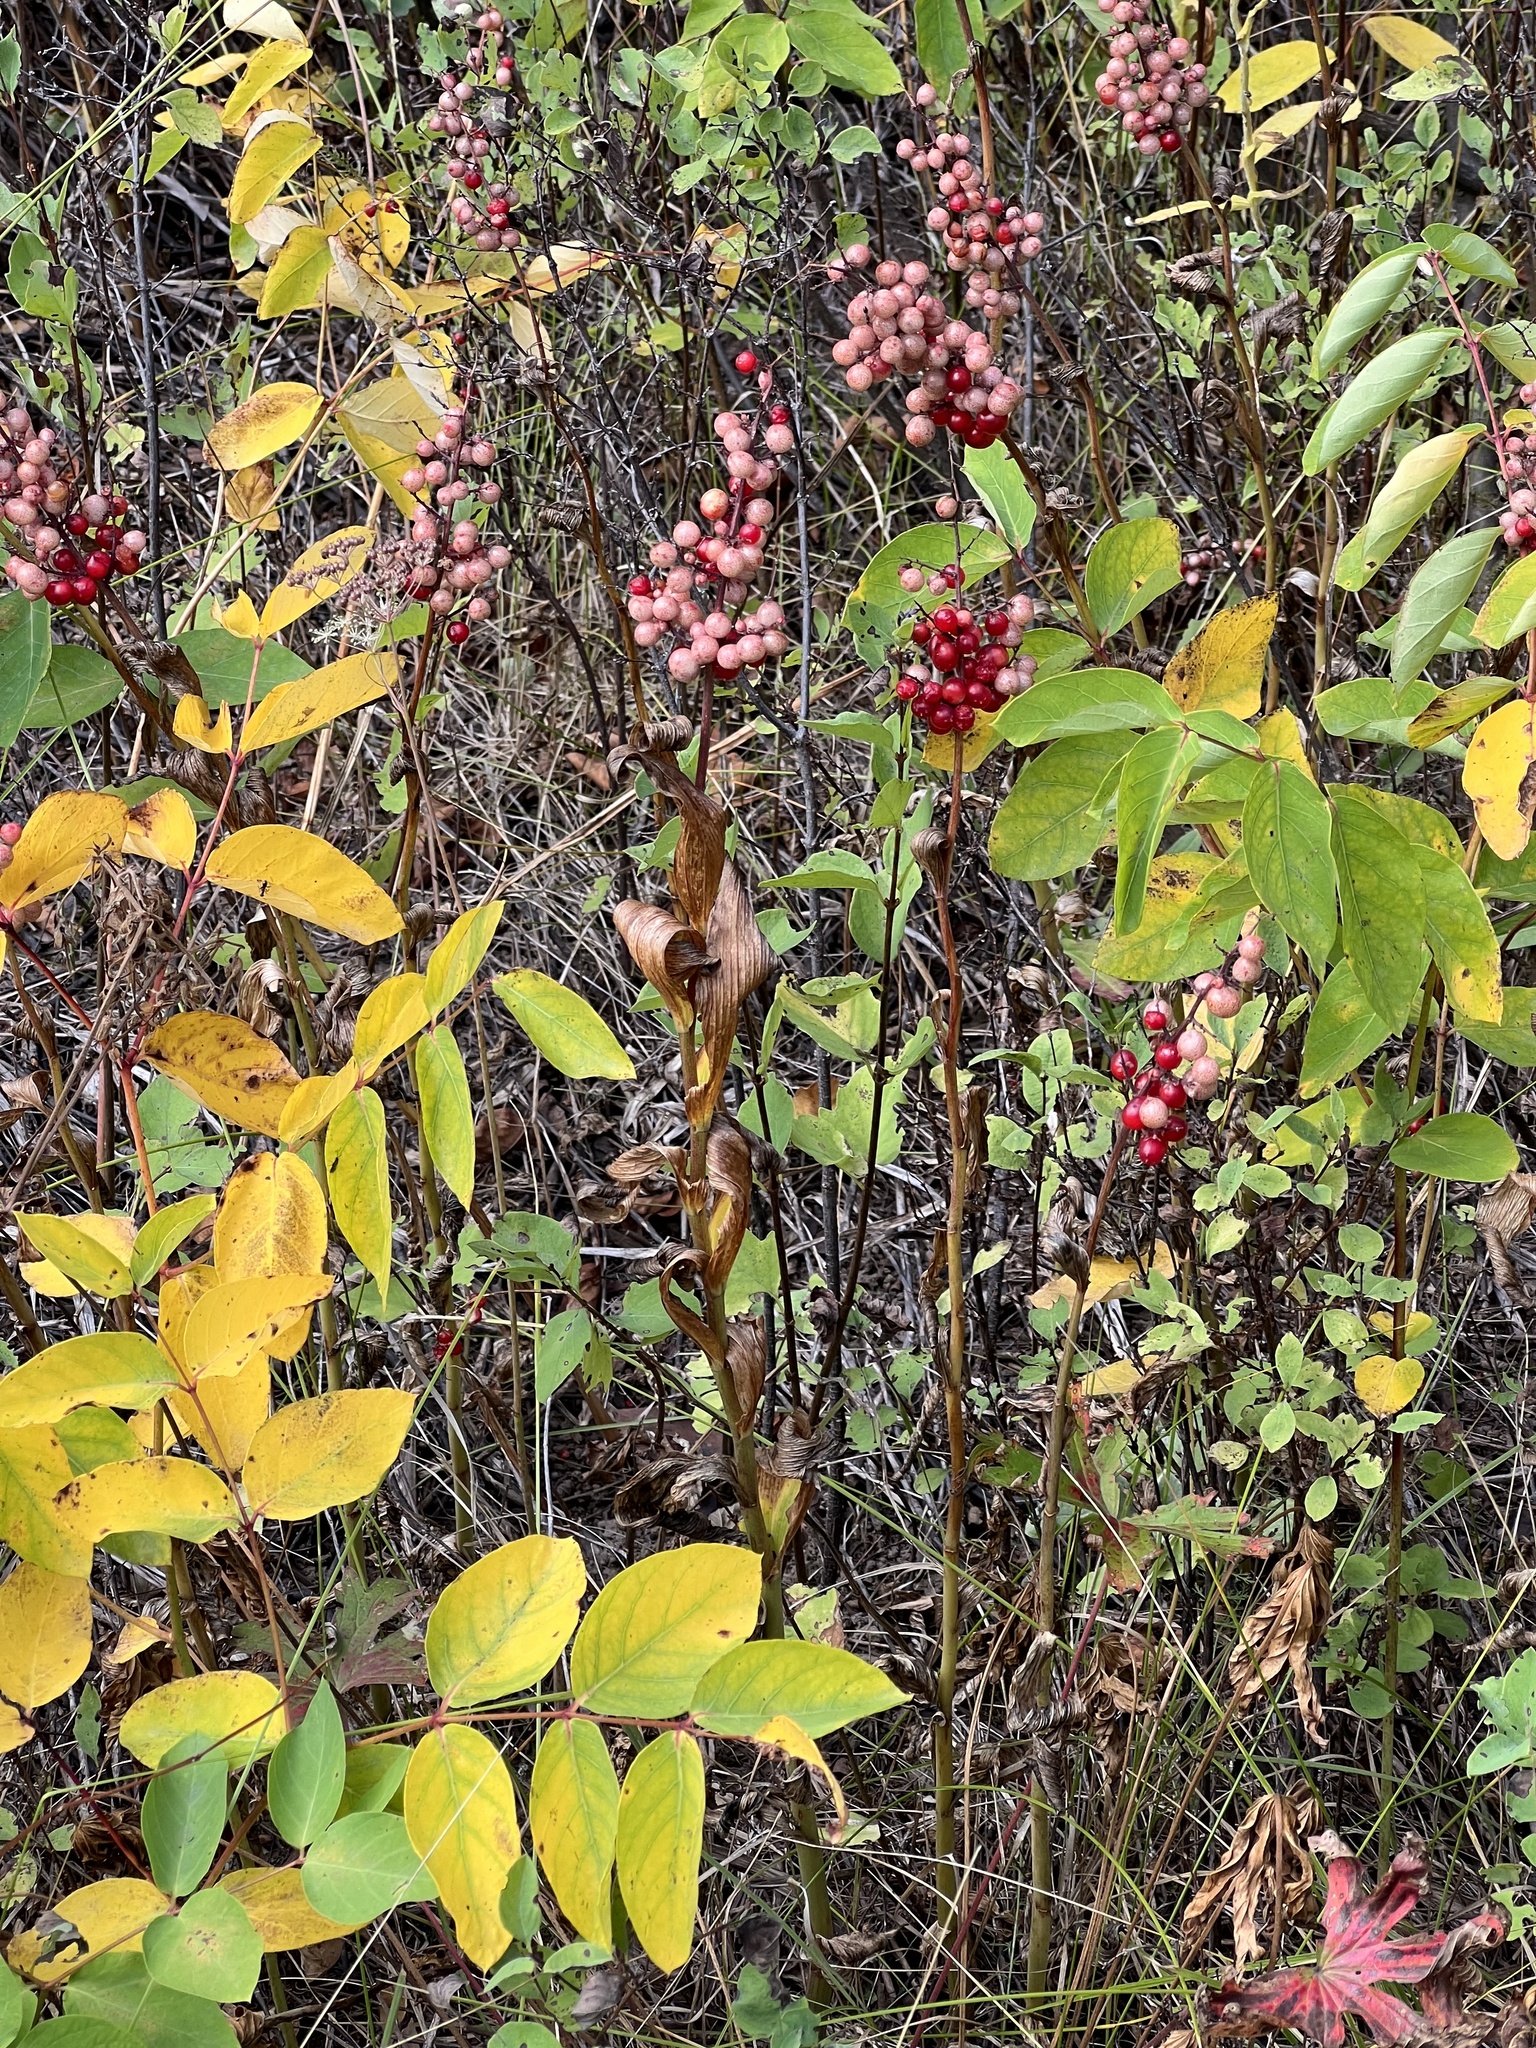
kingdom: Plantae
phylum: Tracheophyta
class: Liliopsida
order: Asparagales
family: Asparagaceae
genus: Maianthemum
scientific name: Maianthemum racemosum
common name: False spikenard
